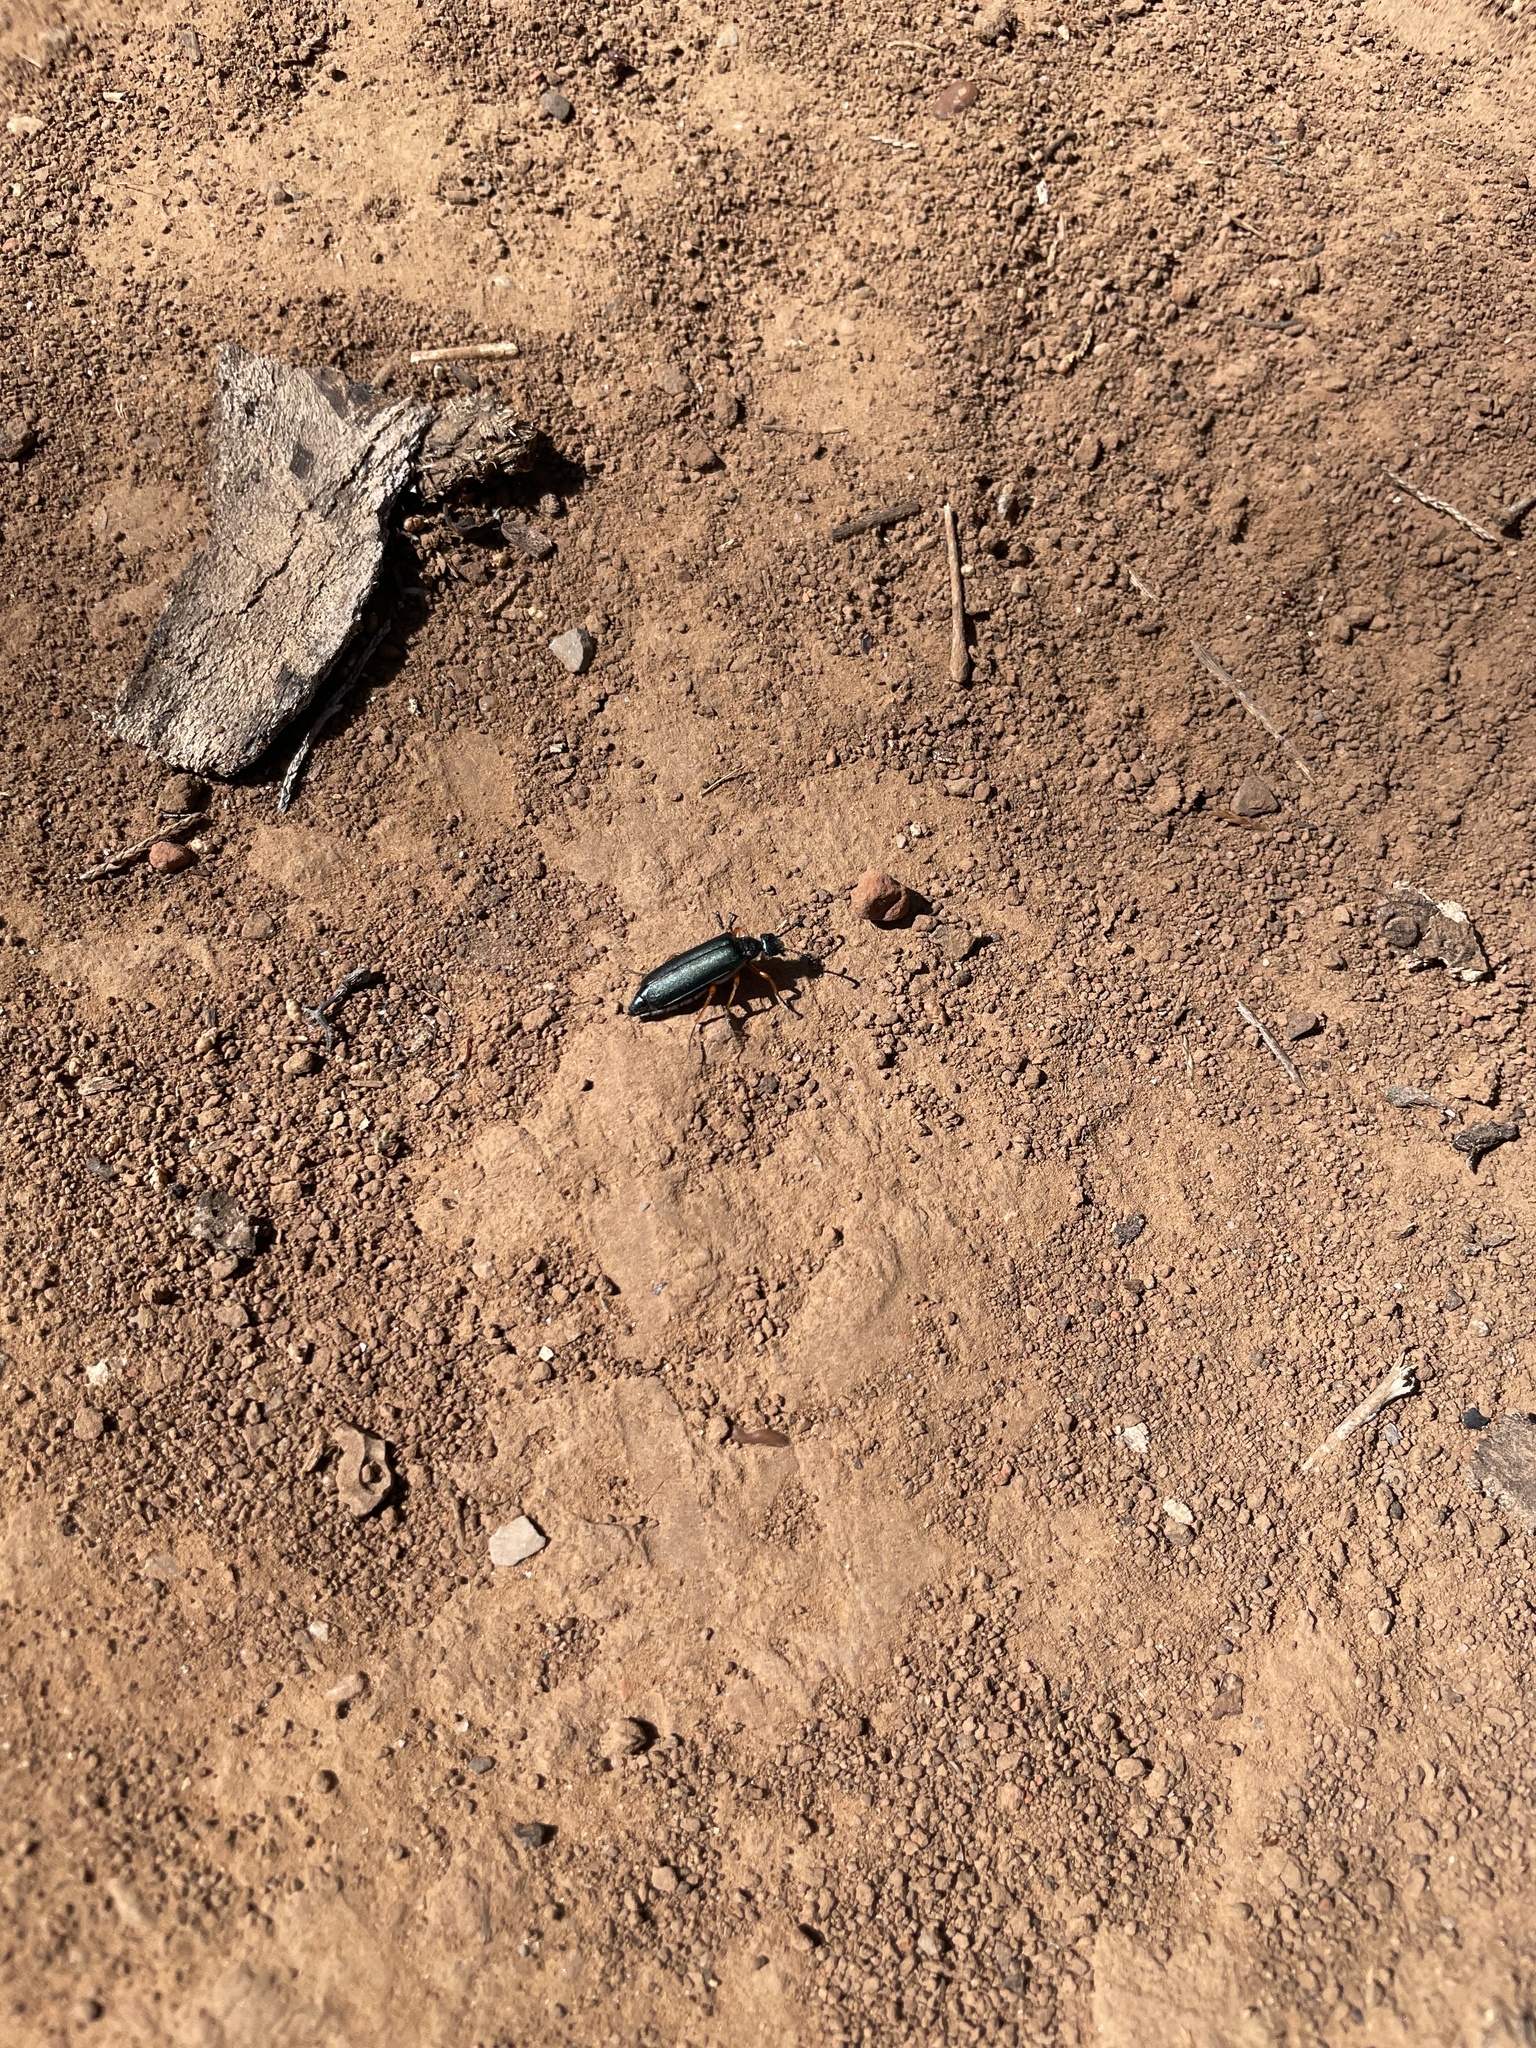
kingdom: Animalia
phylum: Arthropoda
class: Insecta
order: Coleoptera
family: Meloidae
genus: Lytta
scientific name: Lytta aenea
